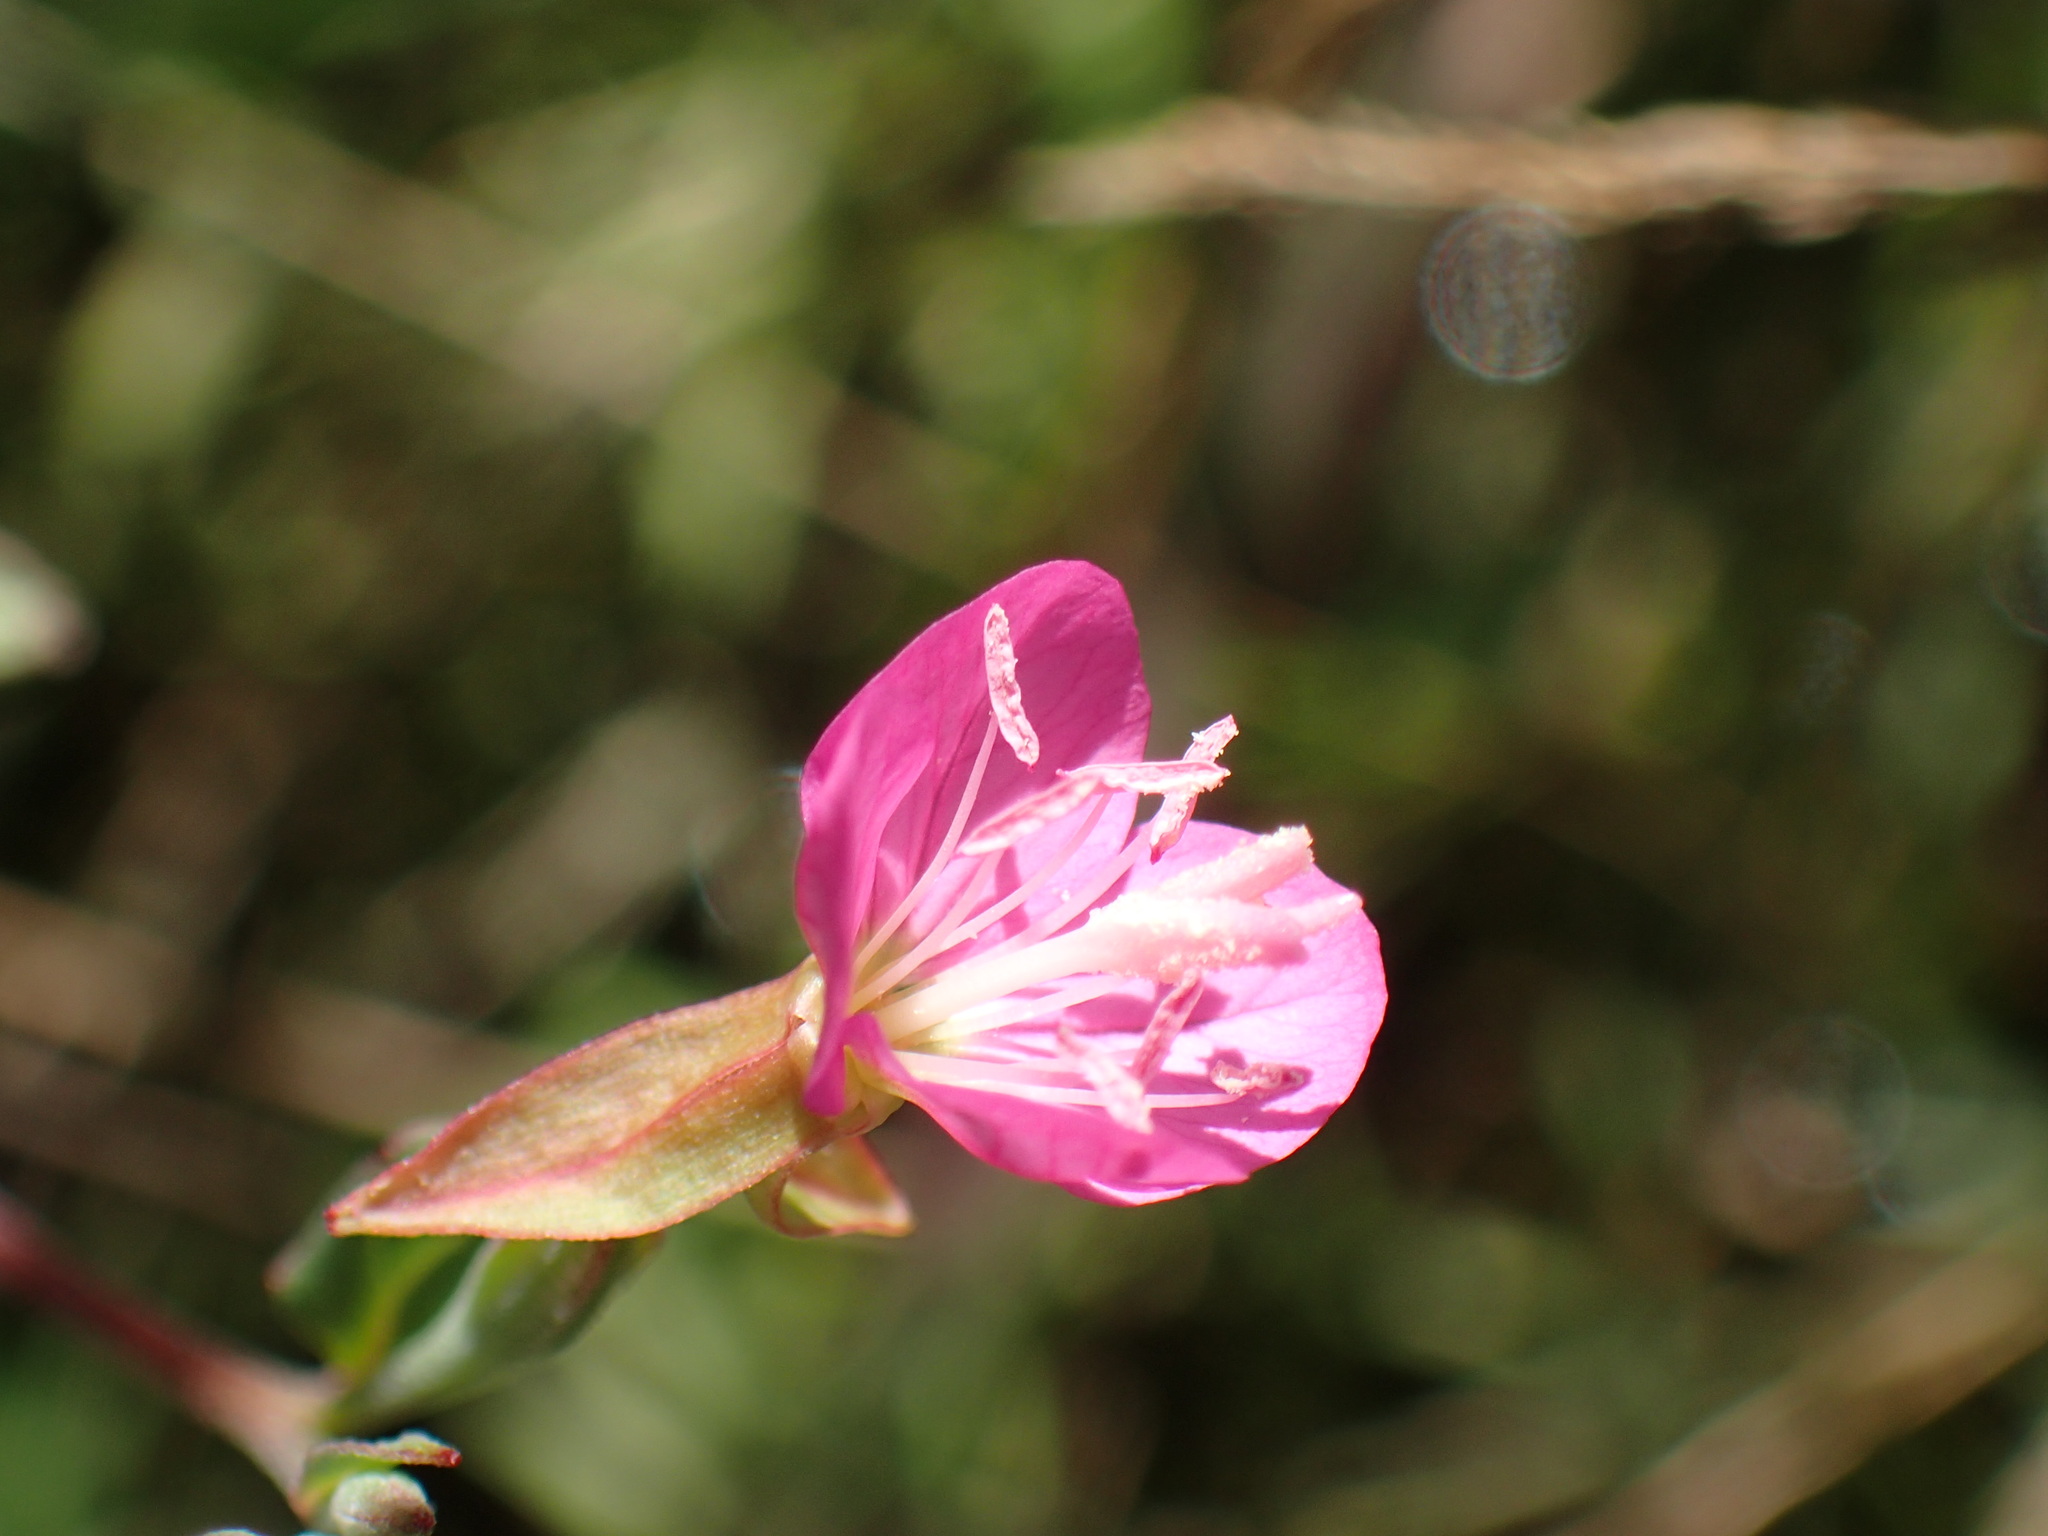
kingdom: Plantae
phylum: Tracheophyta
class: Magnoliopsida
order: Myrtales
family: Onagraceae
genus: Oenothera
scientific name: Oenothera rosea
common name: Rosy evening-primrose
